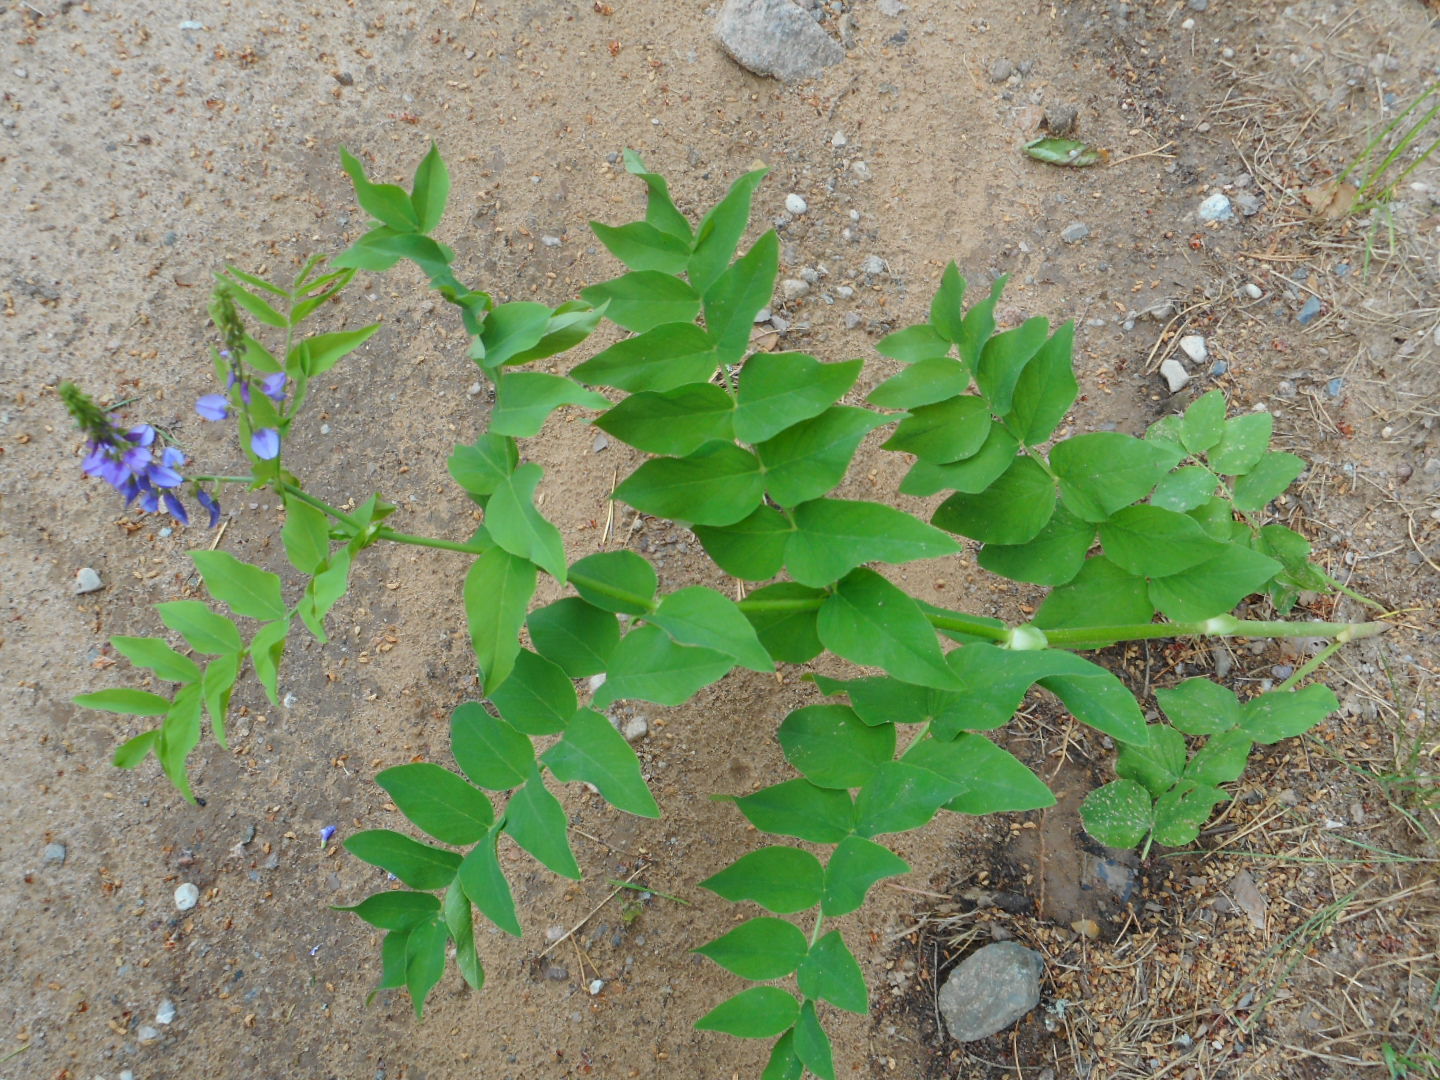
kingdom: Plantae
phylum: Tracheophyta
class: Magnoliopsida
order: Fabales
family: Fabaceae
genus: Galega
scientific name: Galega orientalis
